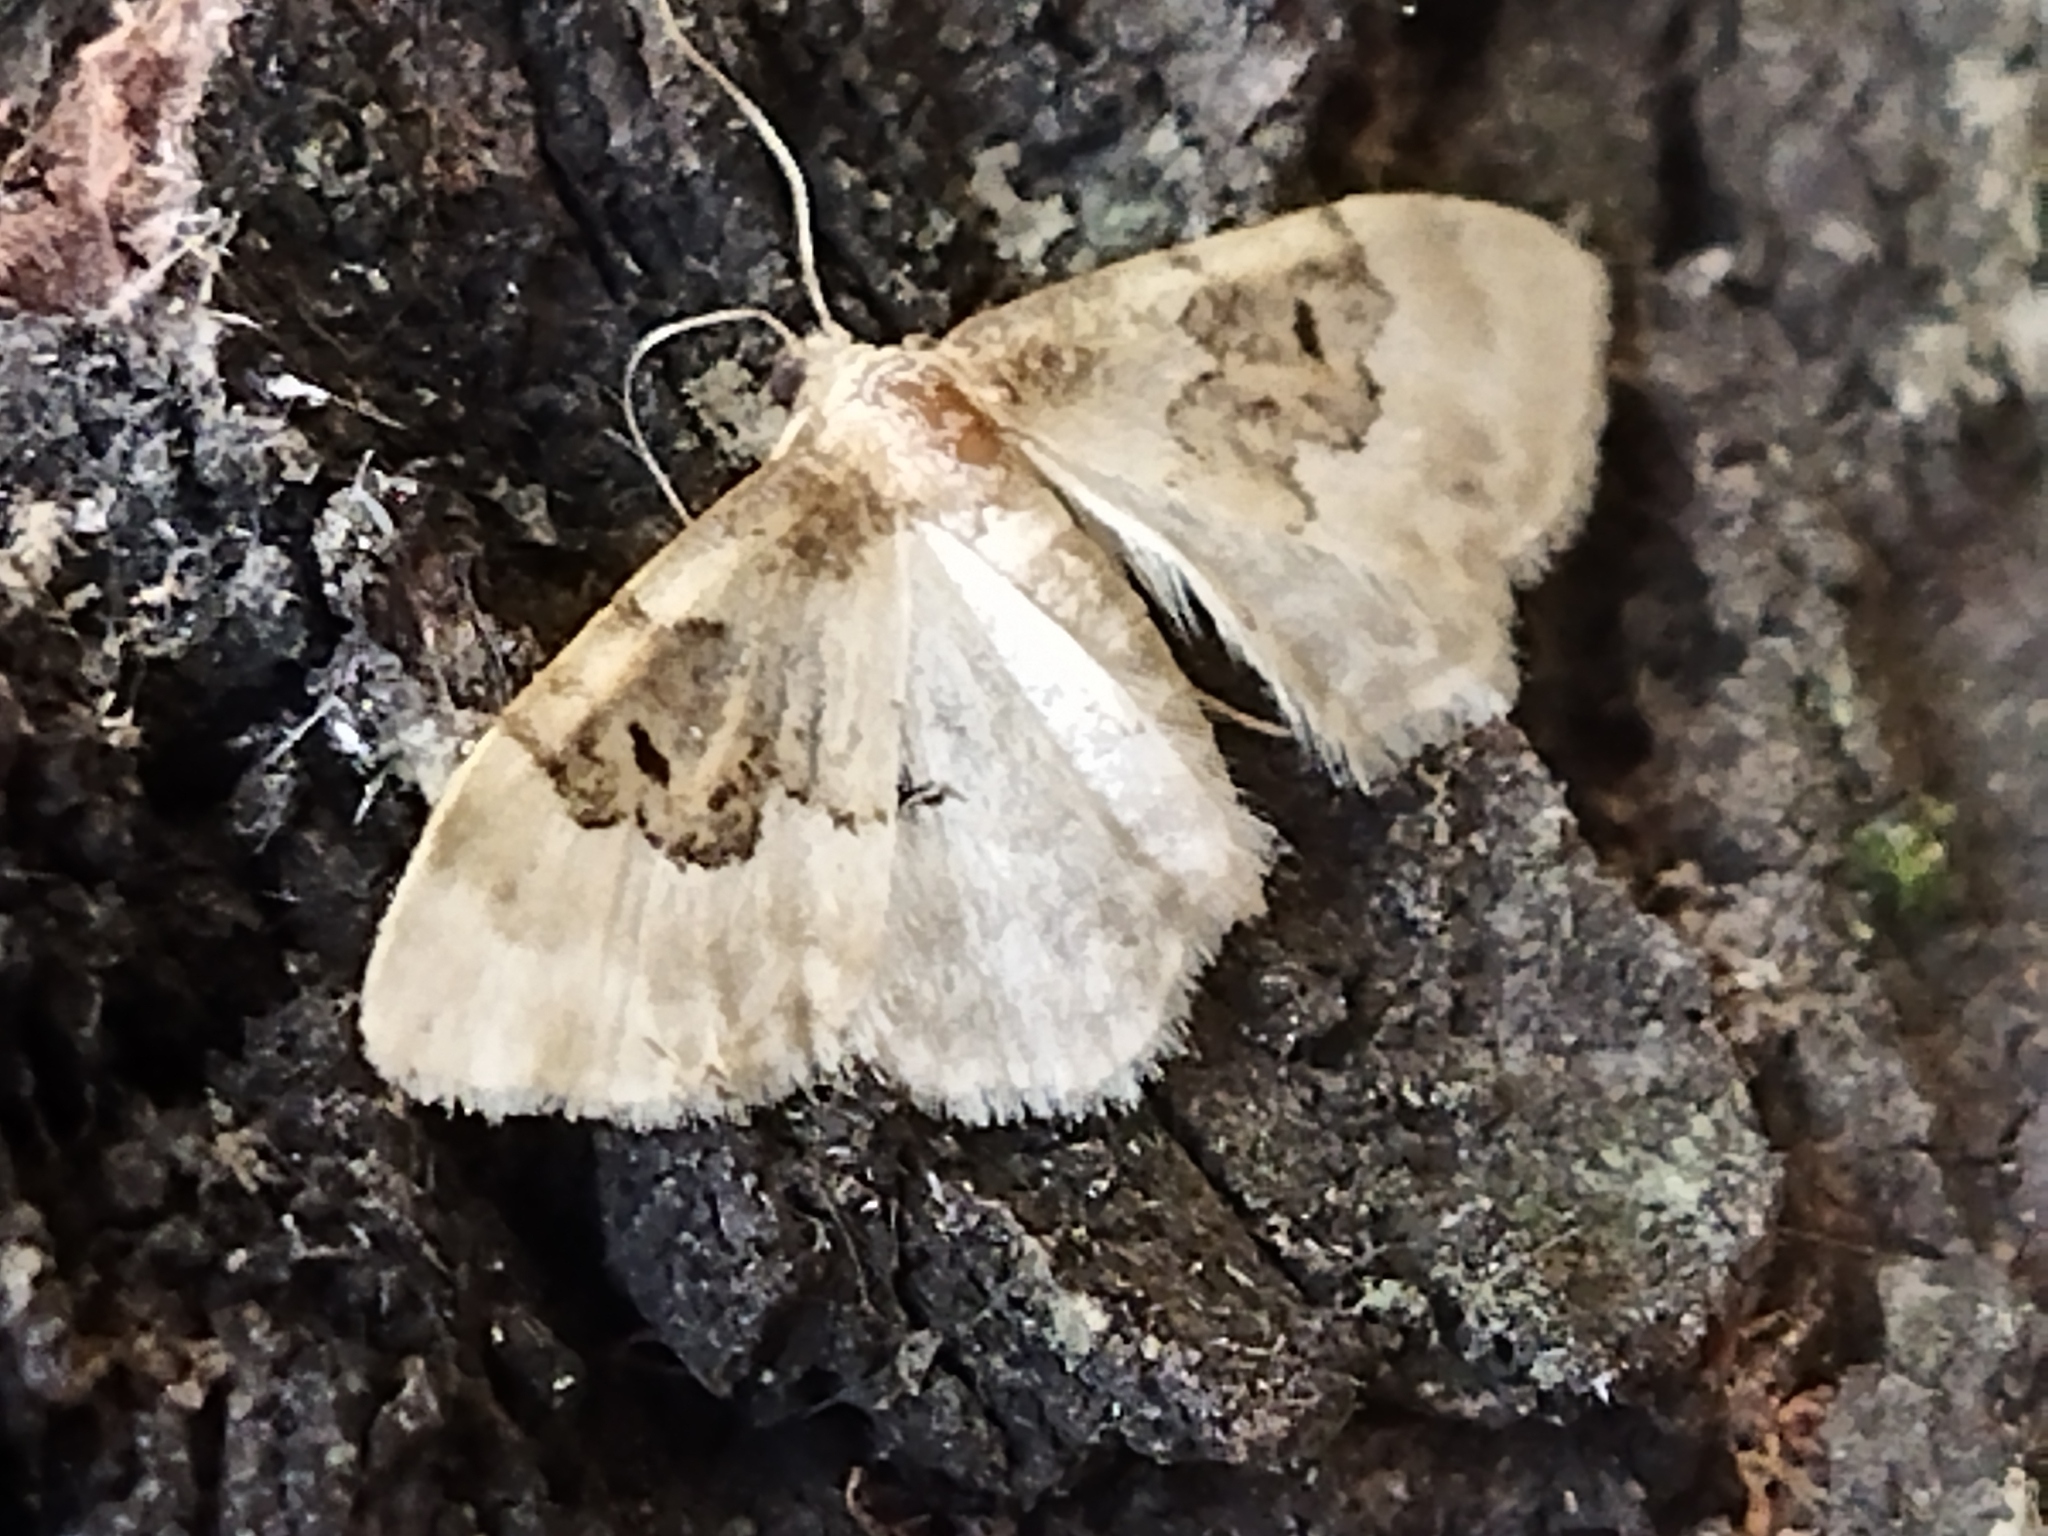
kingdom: Animalia
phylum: Arthropoda
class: Insecta
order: Lepidoptera
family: Geometridae
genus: Idaea
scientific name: Idaea rusticata
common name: Least carpet
